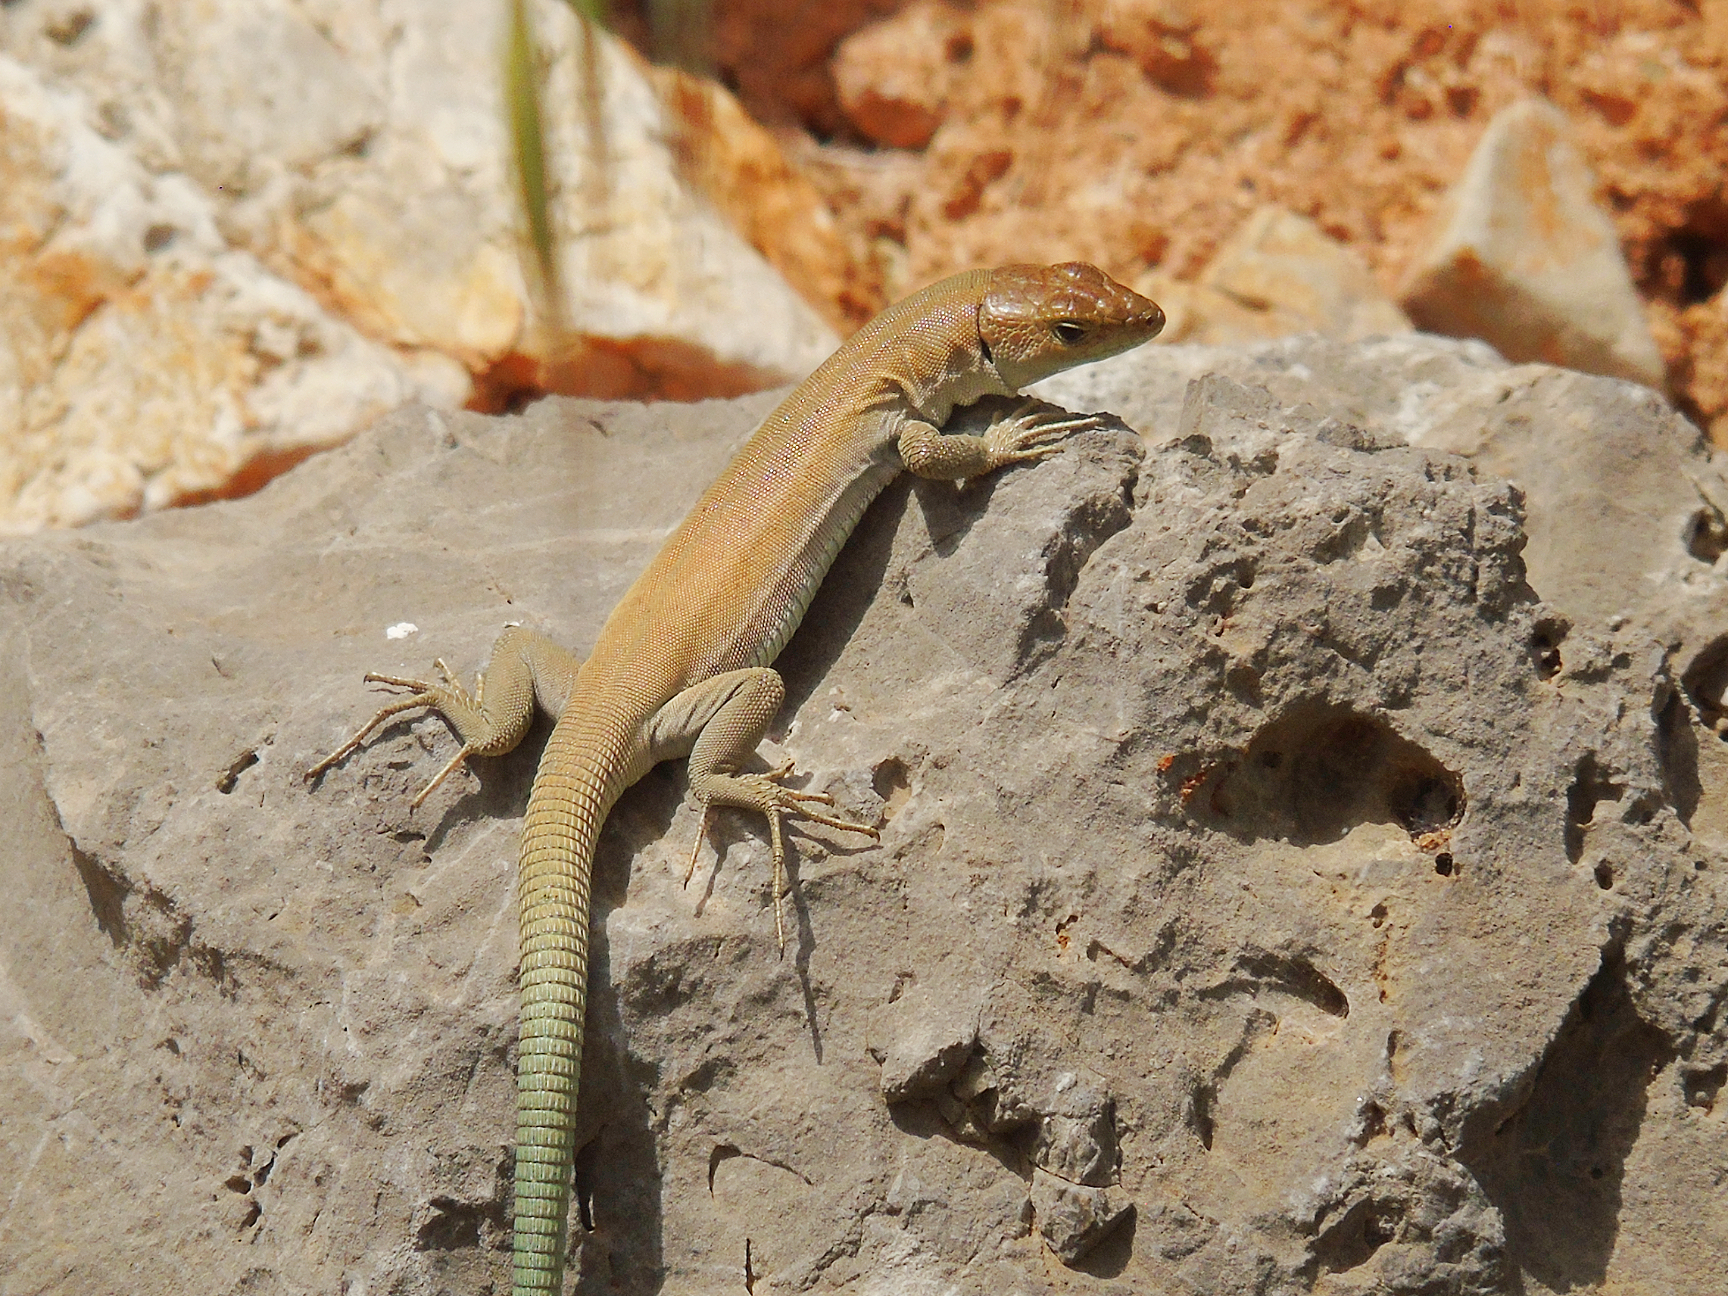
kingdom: Animalia
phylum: Chordata
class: Squamata
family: Lacertidae
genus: Podarcis
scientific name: Podarcis peloponnesiacus
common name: Peloponnese wall lizard
